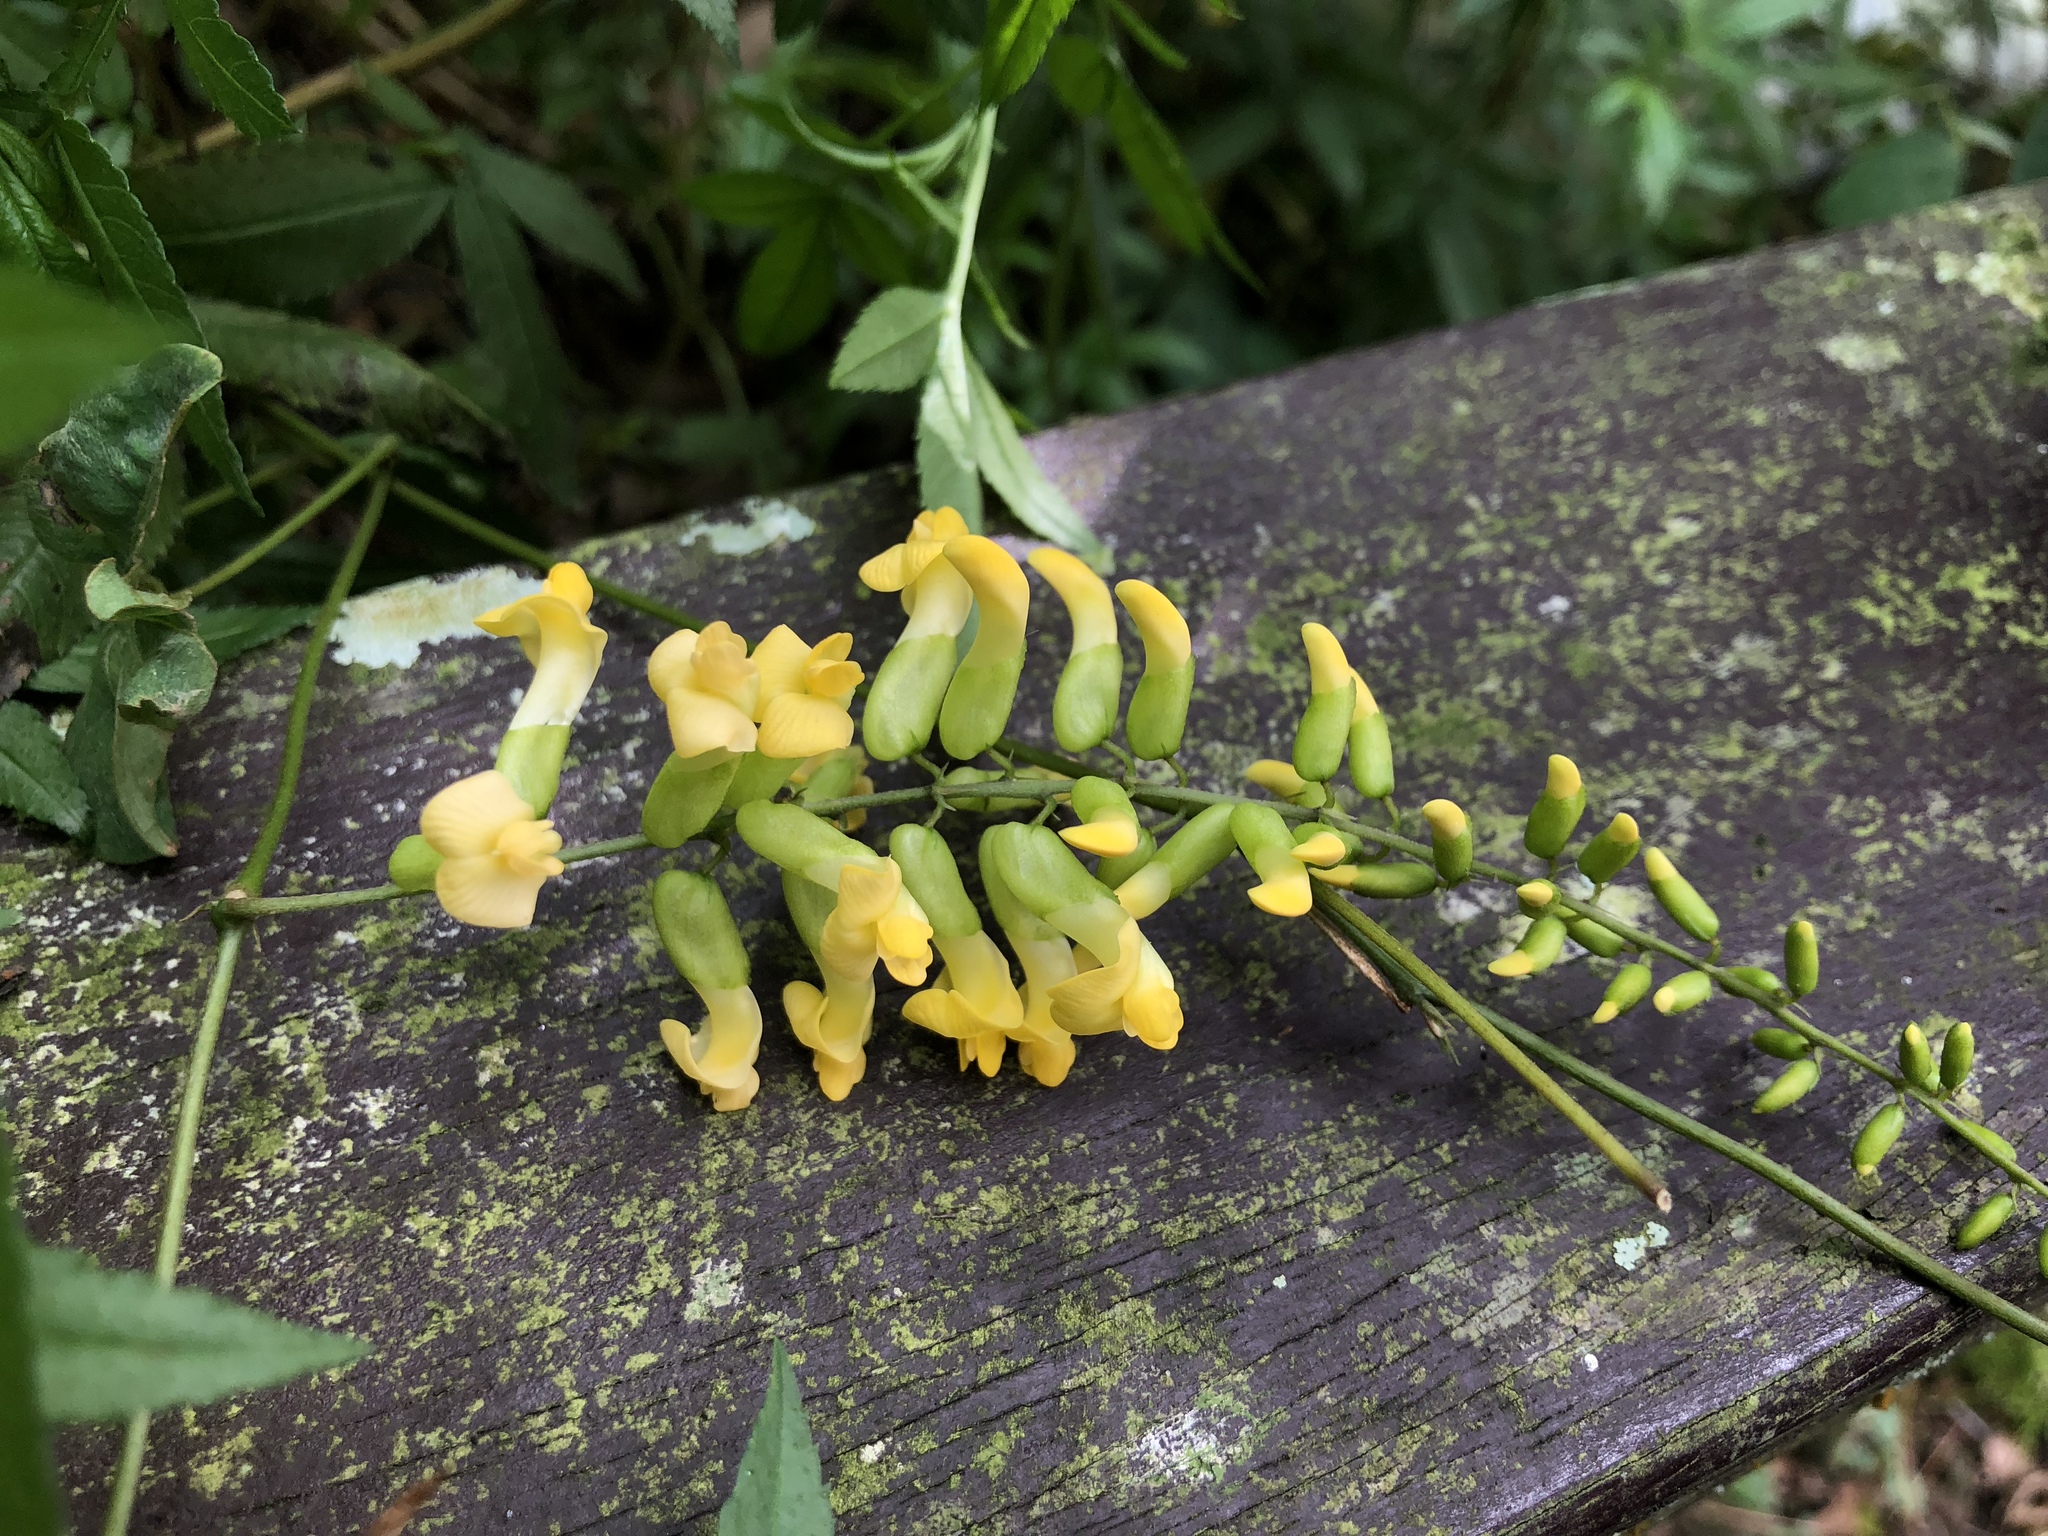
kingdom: Plantae
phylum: Tracheophyta
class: Magnoliopsida
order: Fabales
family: Fabaceae
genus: Dumasia
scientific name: Dumasia villosa
